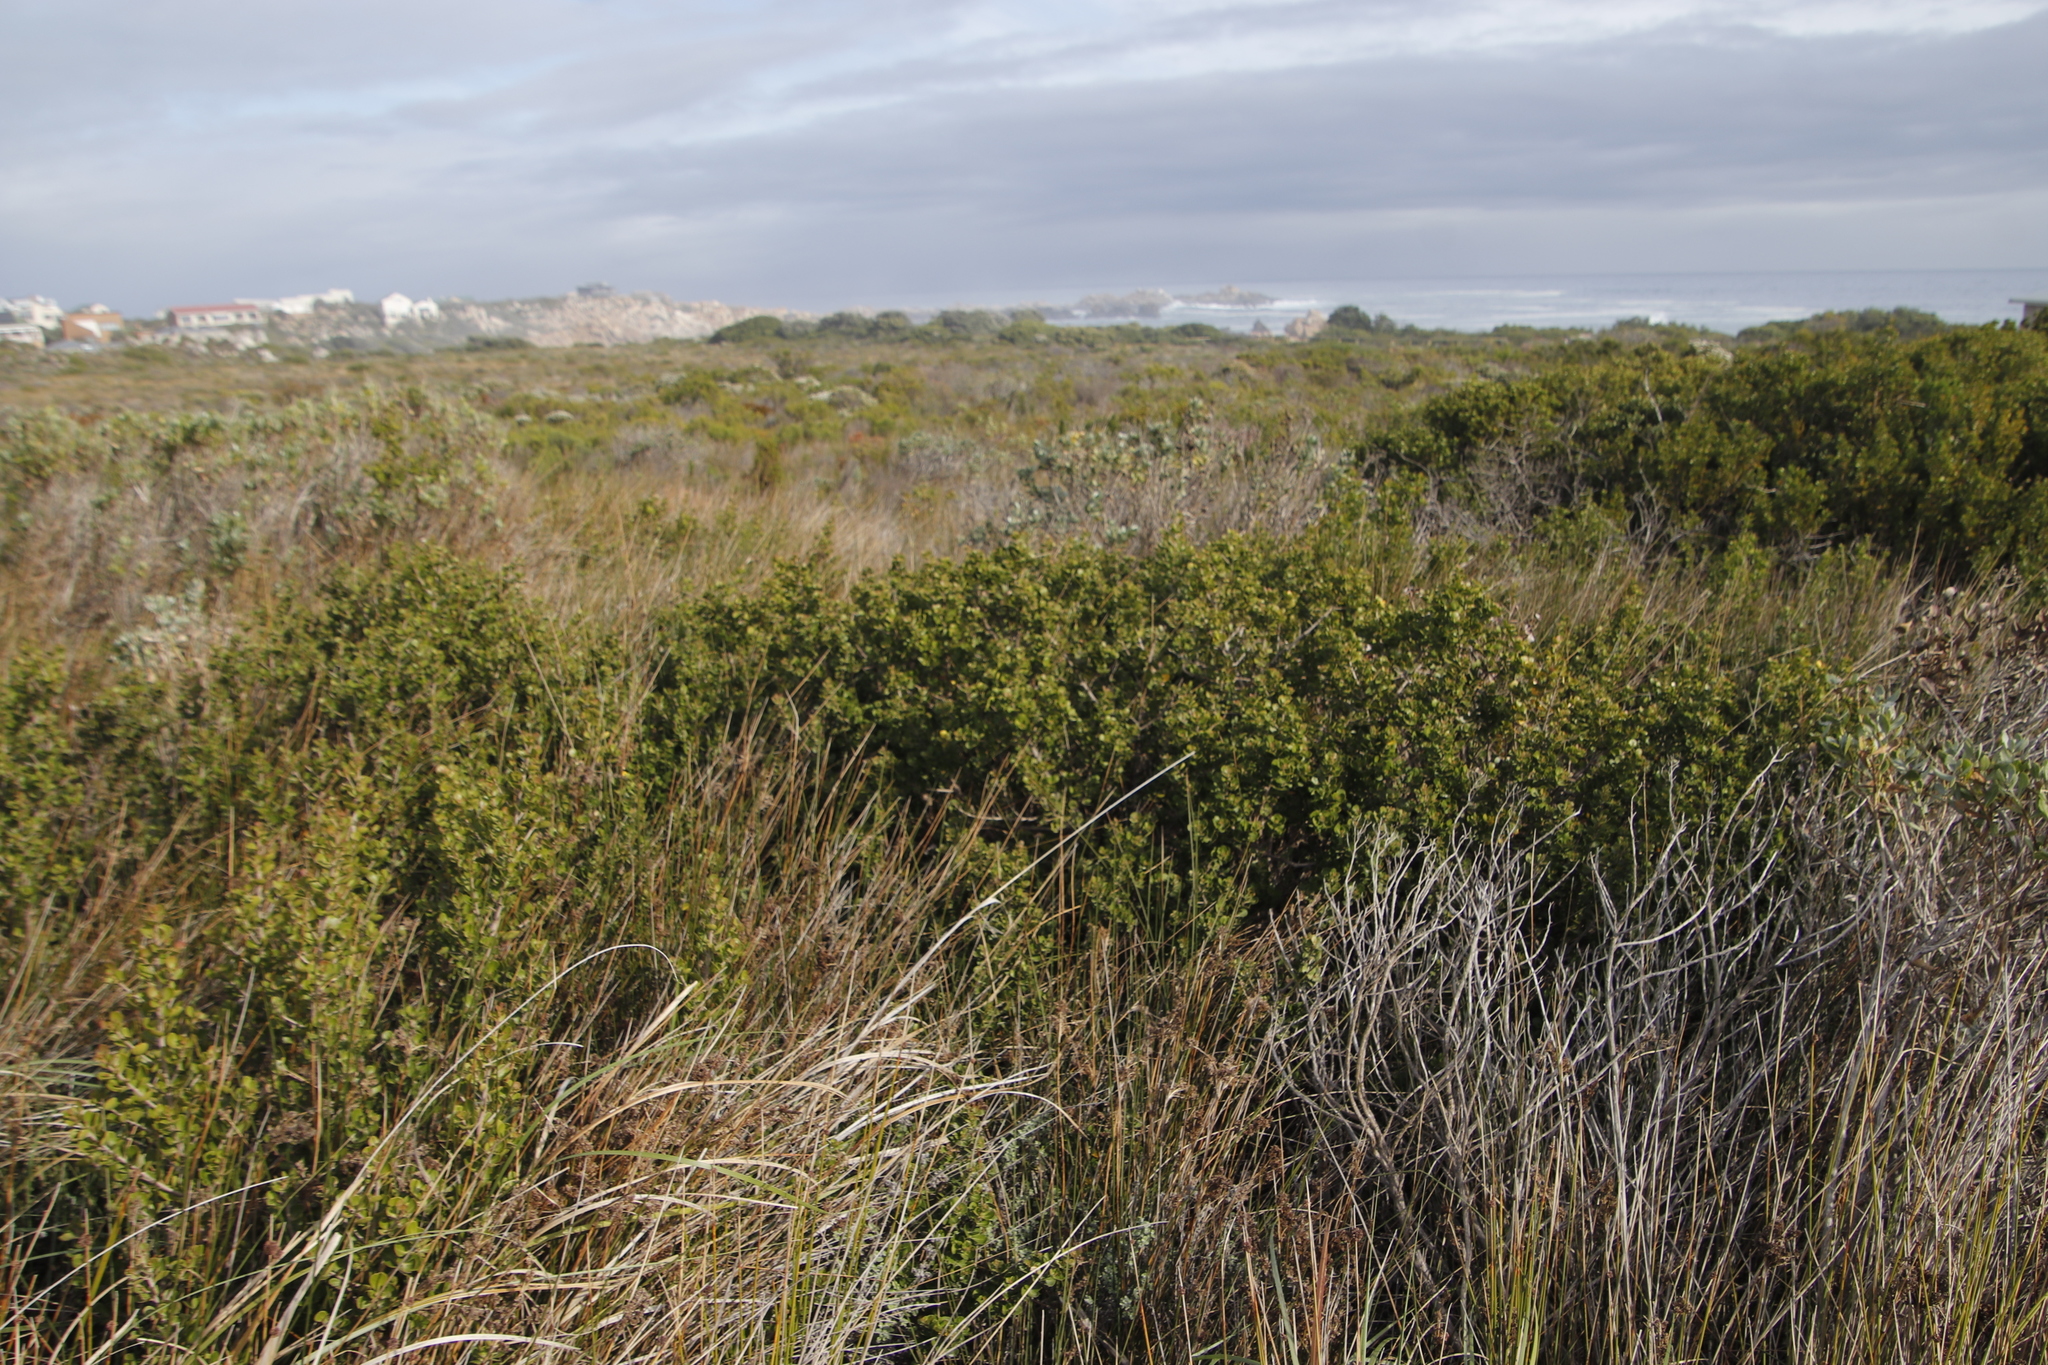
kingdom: Plantae
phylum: Tracheophyta
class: Magnoliopsida
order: Sapindales
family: Anacardiaceae
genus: Searsia
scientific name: Searsia lucida
